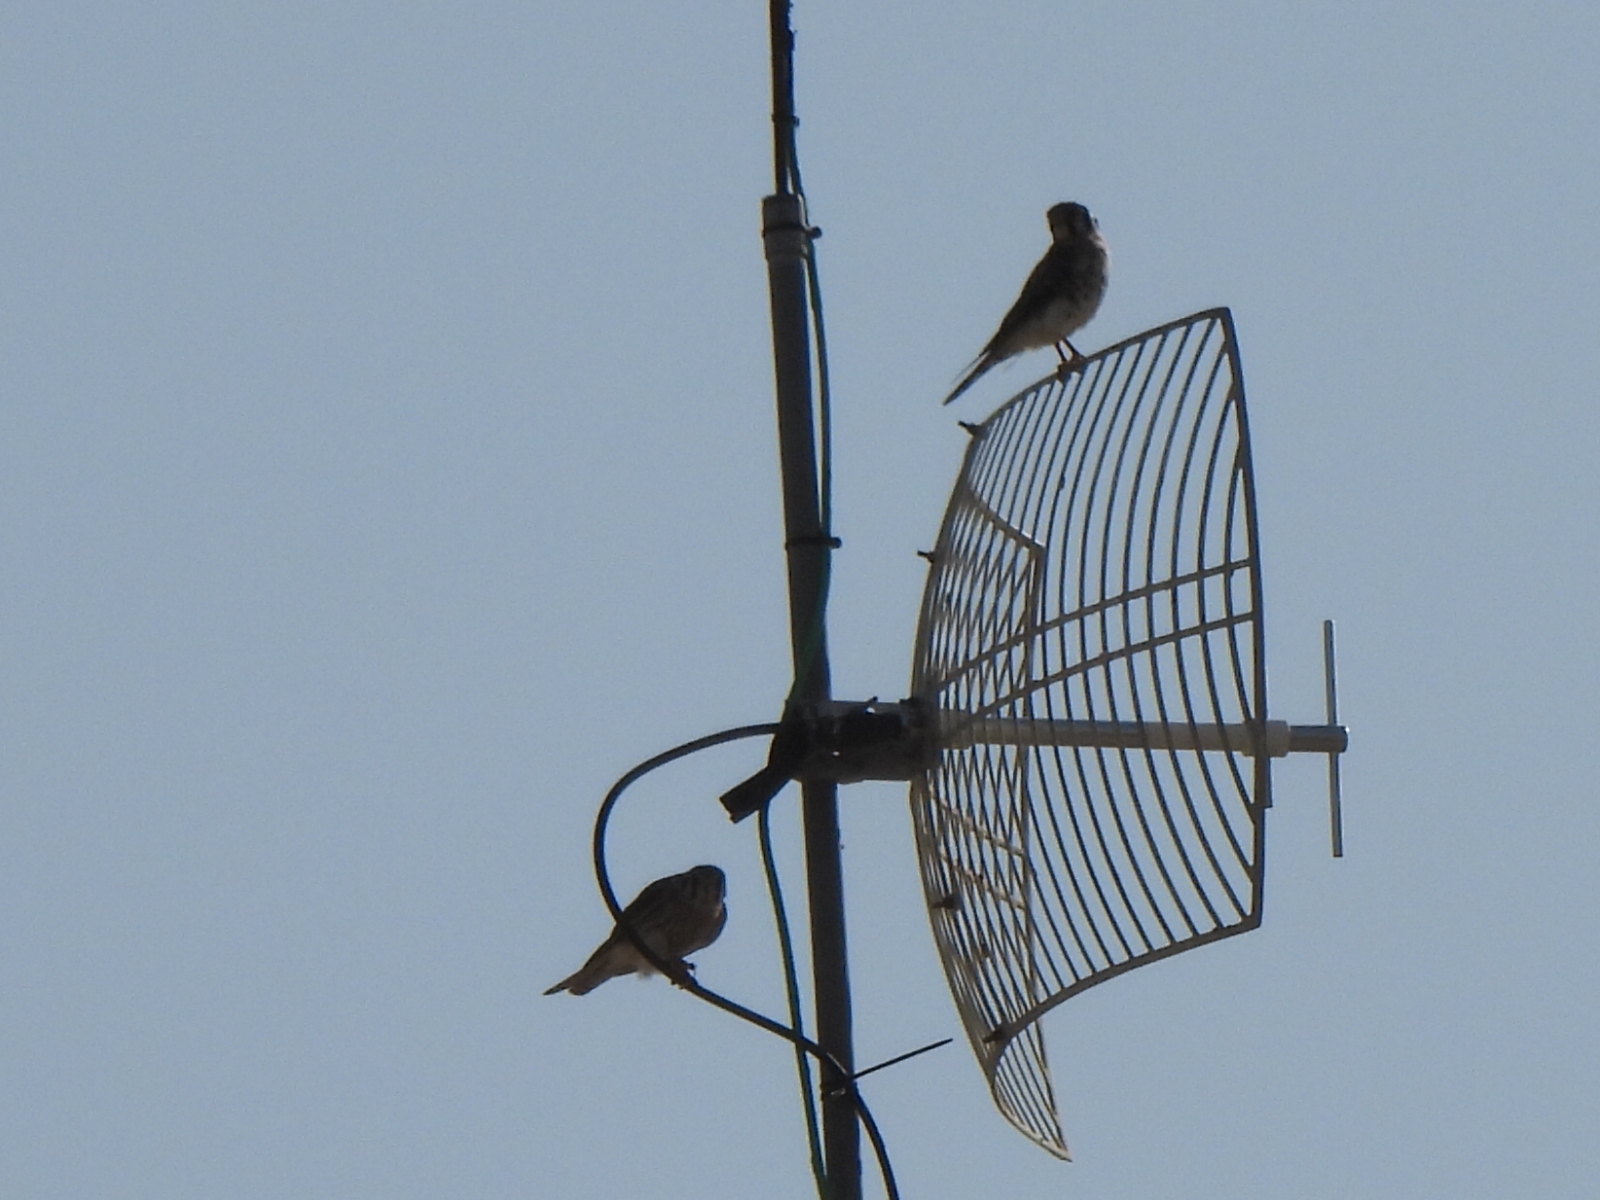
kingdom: Animalia
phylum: Chordata
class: Aves
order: Falconiformes
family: Falconidae
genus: Falco
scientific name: Falco sparverius
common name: American kestrel
